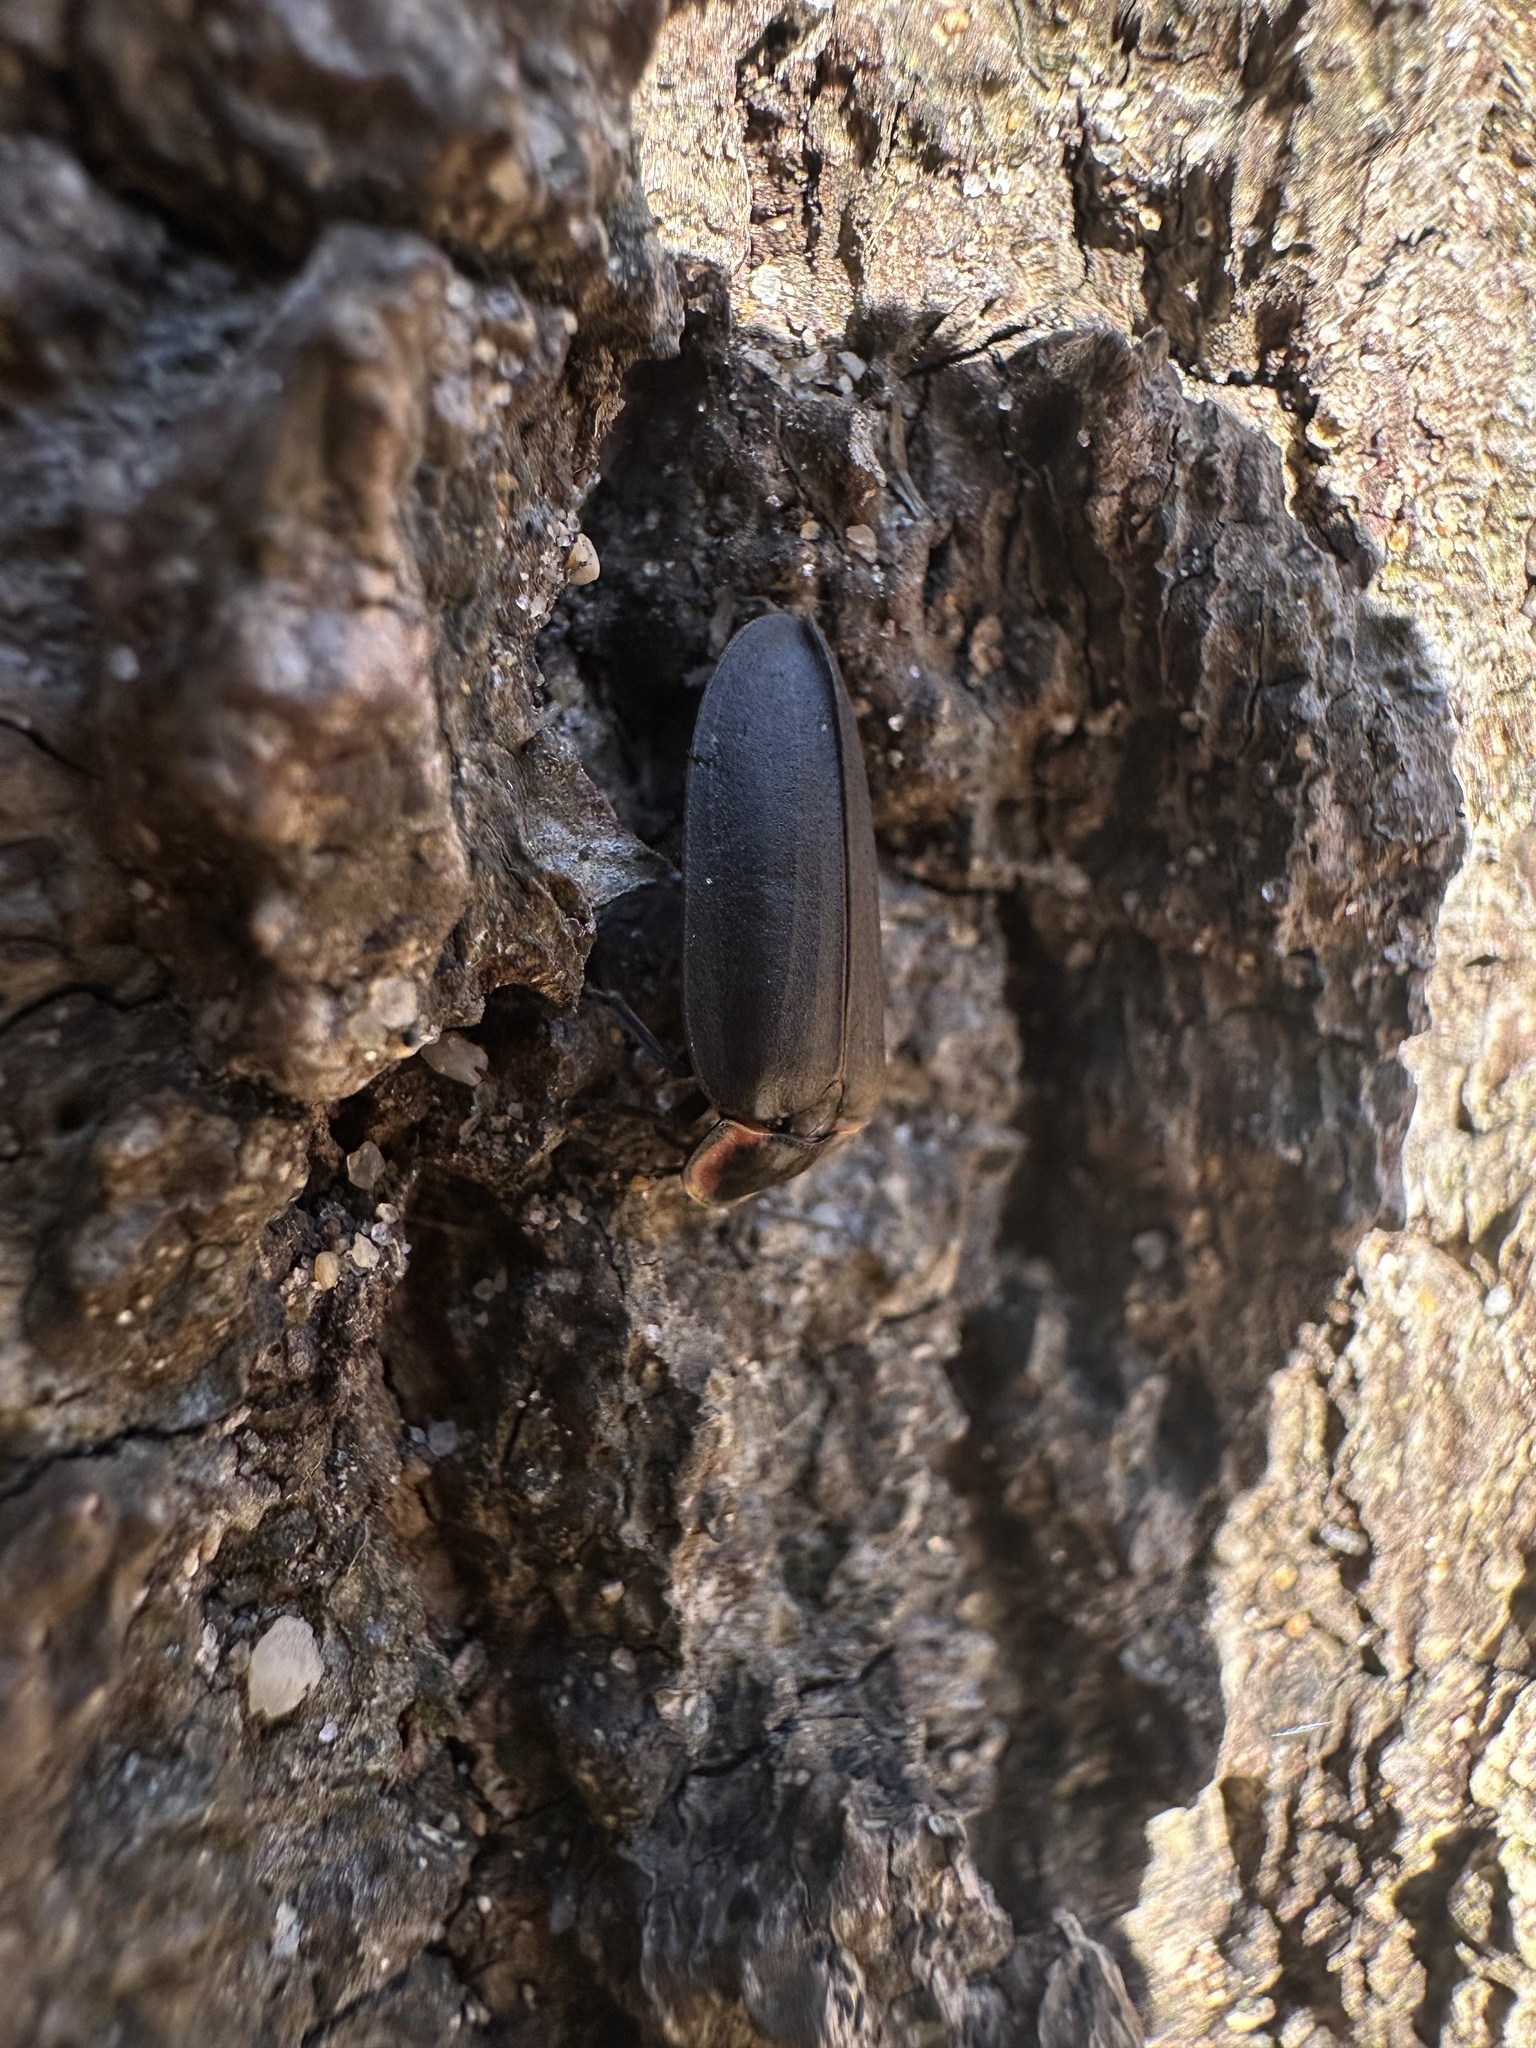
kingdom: Animalia
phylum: Arthropoda
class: Insecta
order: Coleoptera
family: Lampyridae
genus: Photinus
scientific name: Photinus corrusca
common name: Winter firefly
